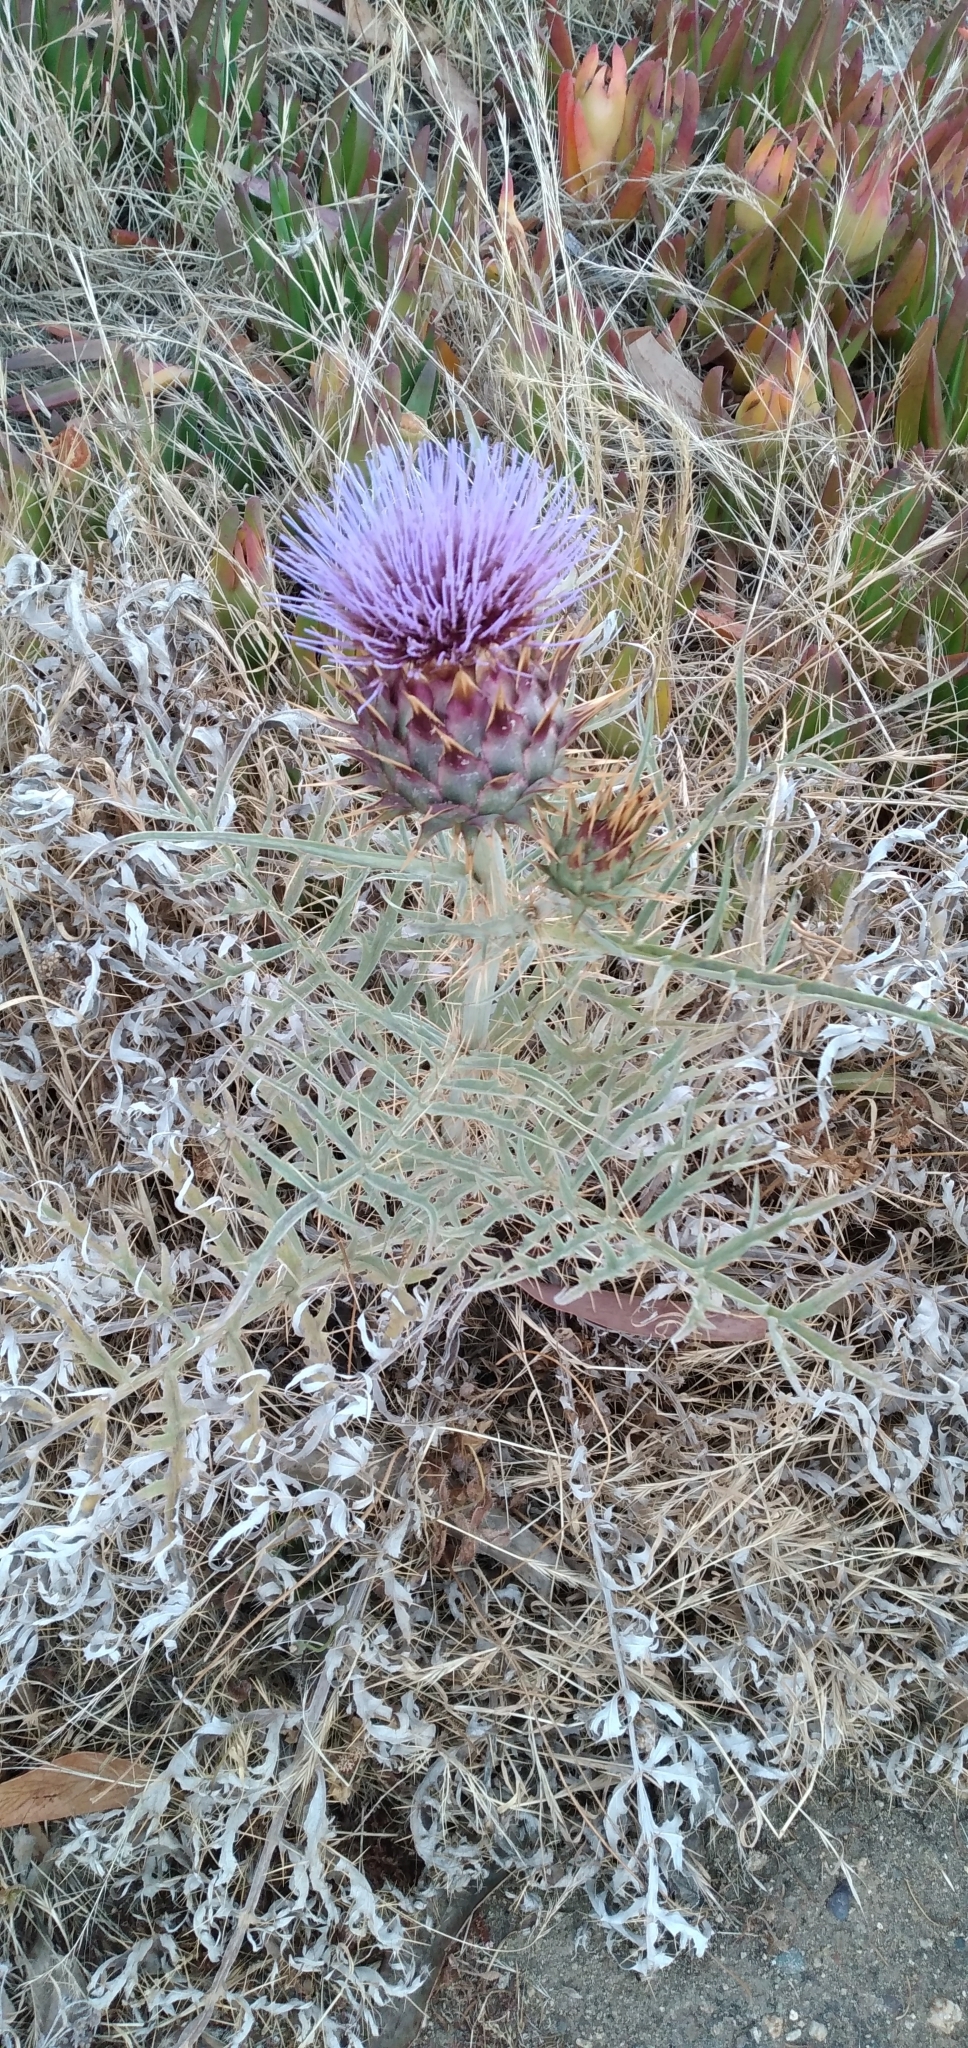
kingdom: Plantae
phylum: Tracheophyta
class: Magnoliopsida
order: Asterales
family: Asteraceae
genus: Cynara
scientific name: Cynara cardunculus
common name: Globe artichoke
